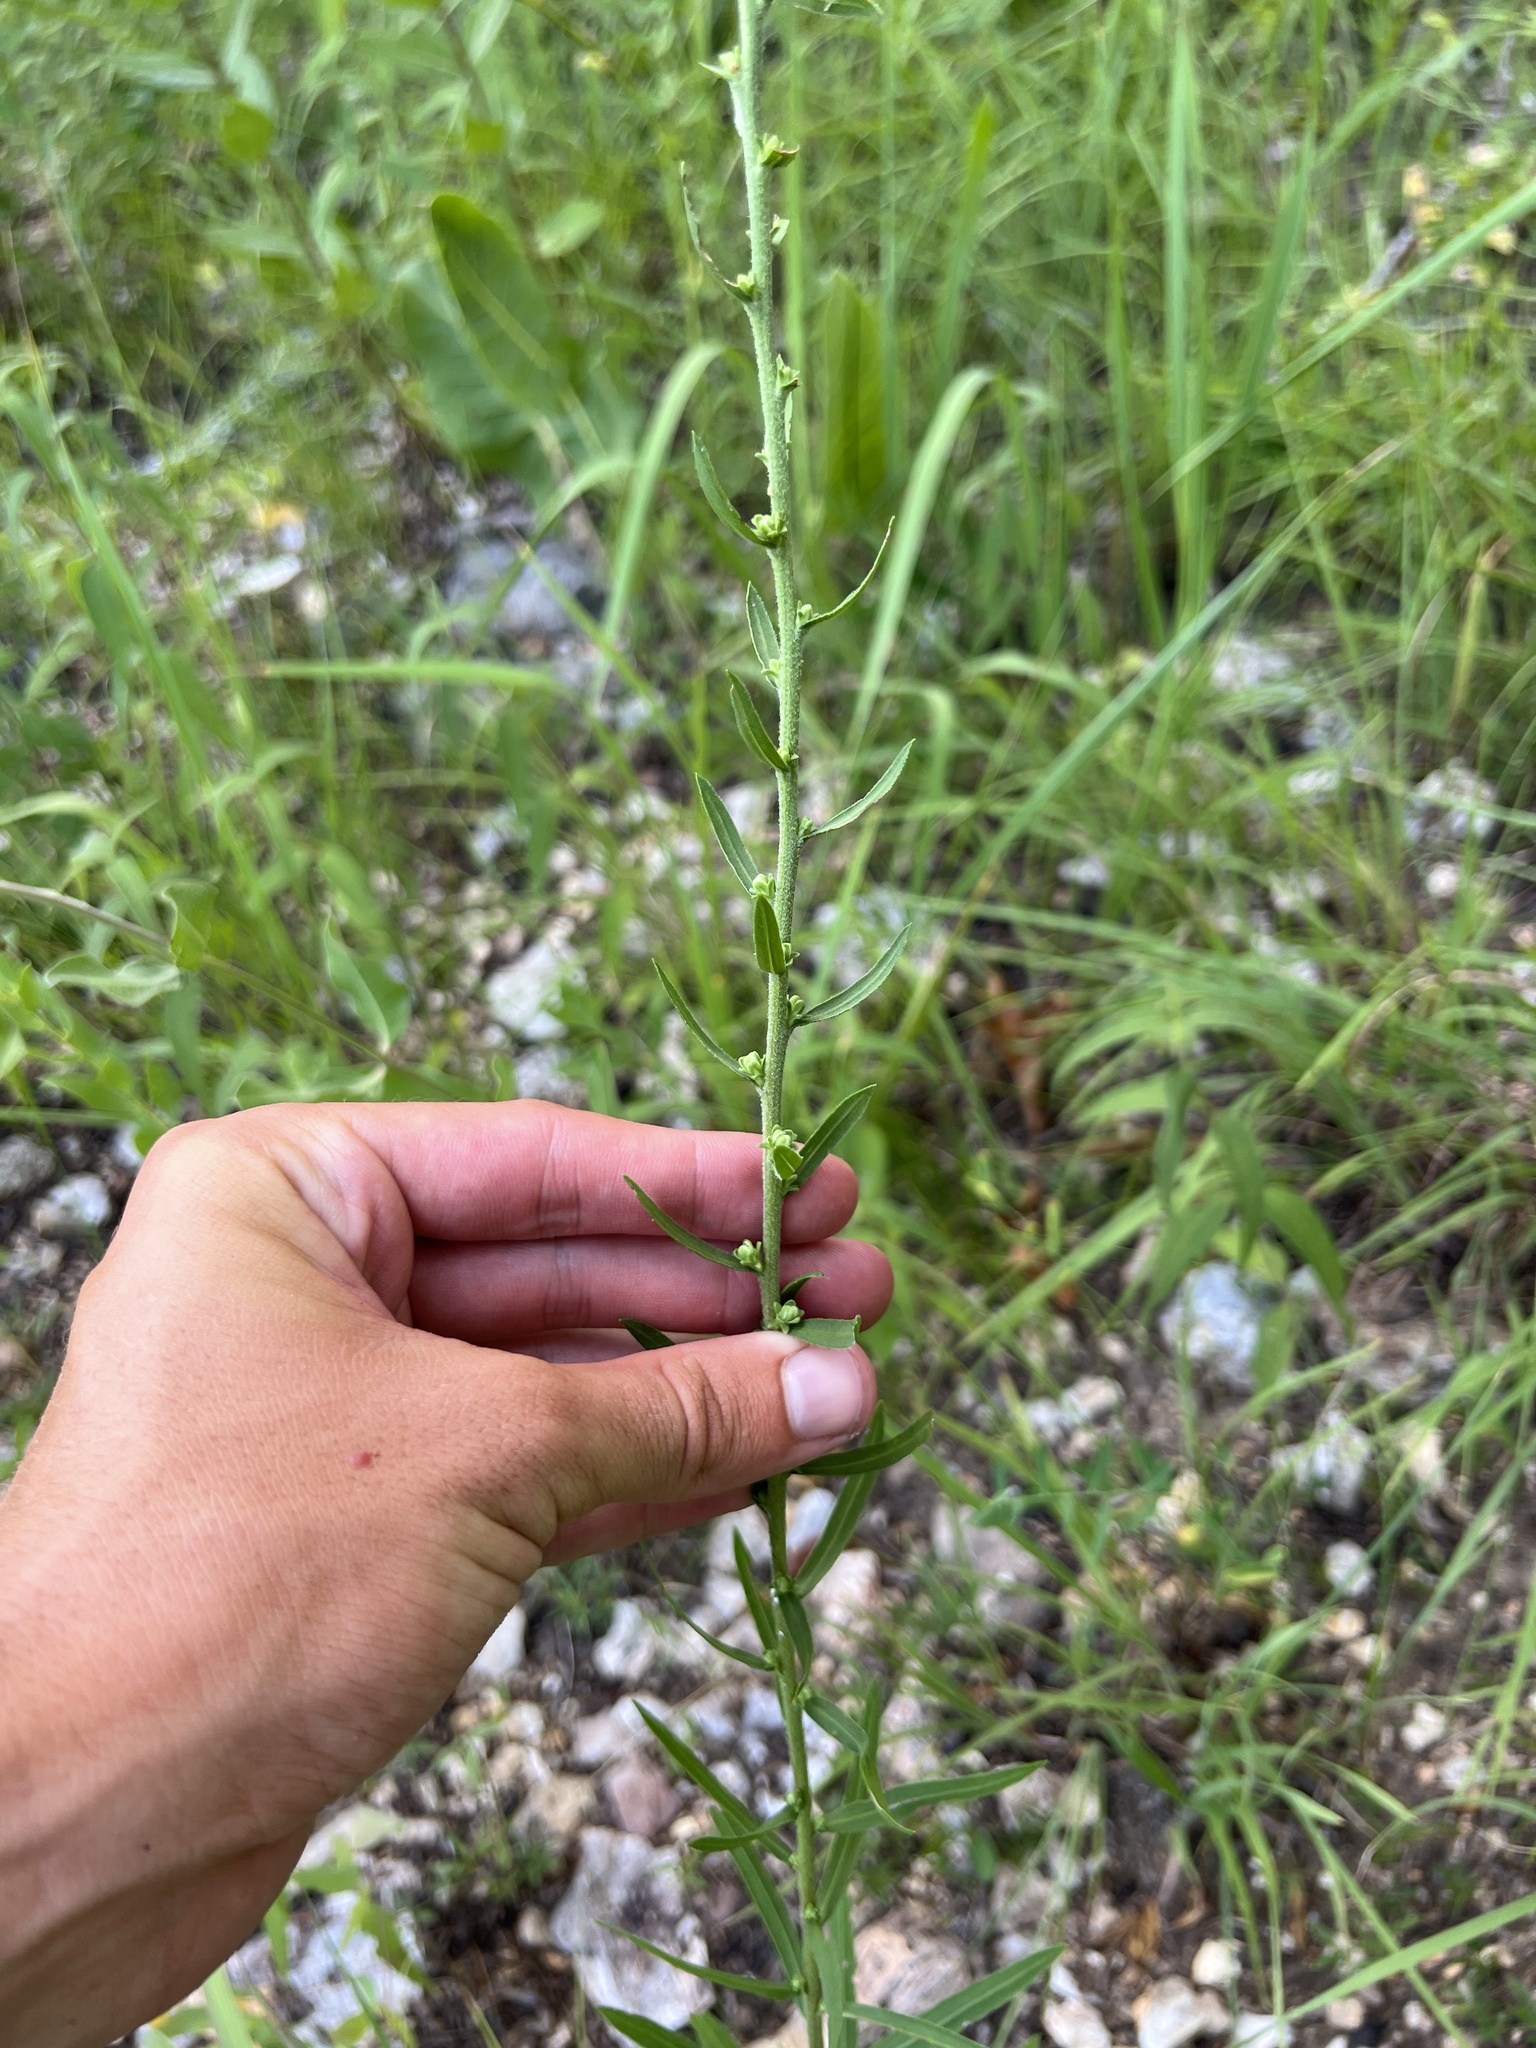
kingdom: Plantae
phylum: Tracheophyta
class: Magnoliopsida
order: Asterales
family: Asteraceae
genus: Liatris
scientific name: Liatris aspera
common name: Lacerate blazing-star
